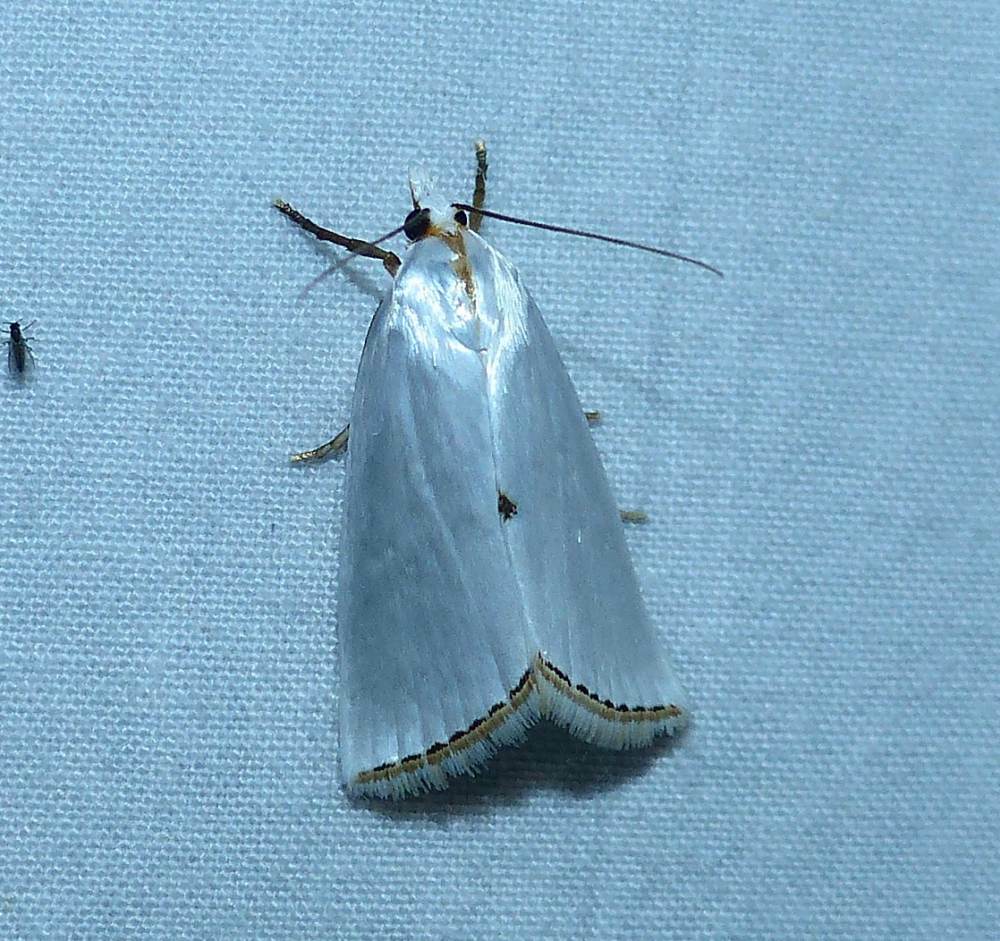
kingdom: Animalia
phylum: Arthropoda
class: Insecta
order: Lepidoptera
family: Crambidae
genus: Argyria
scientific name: Argyria nivalis
